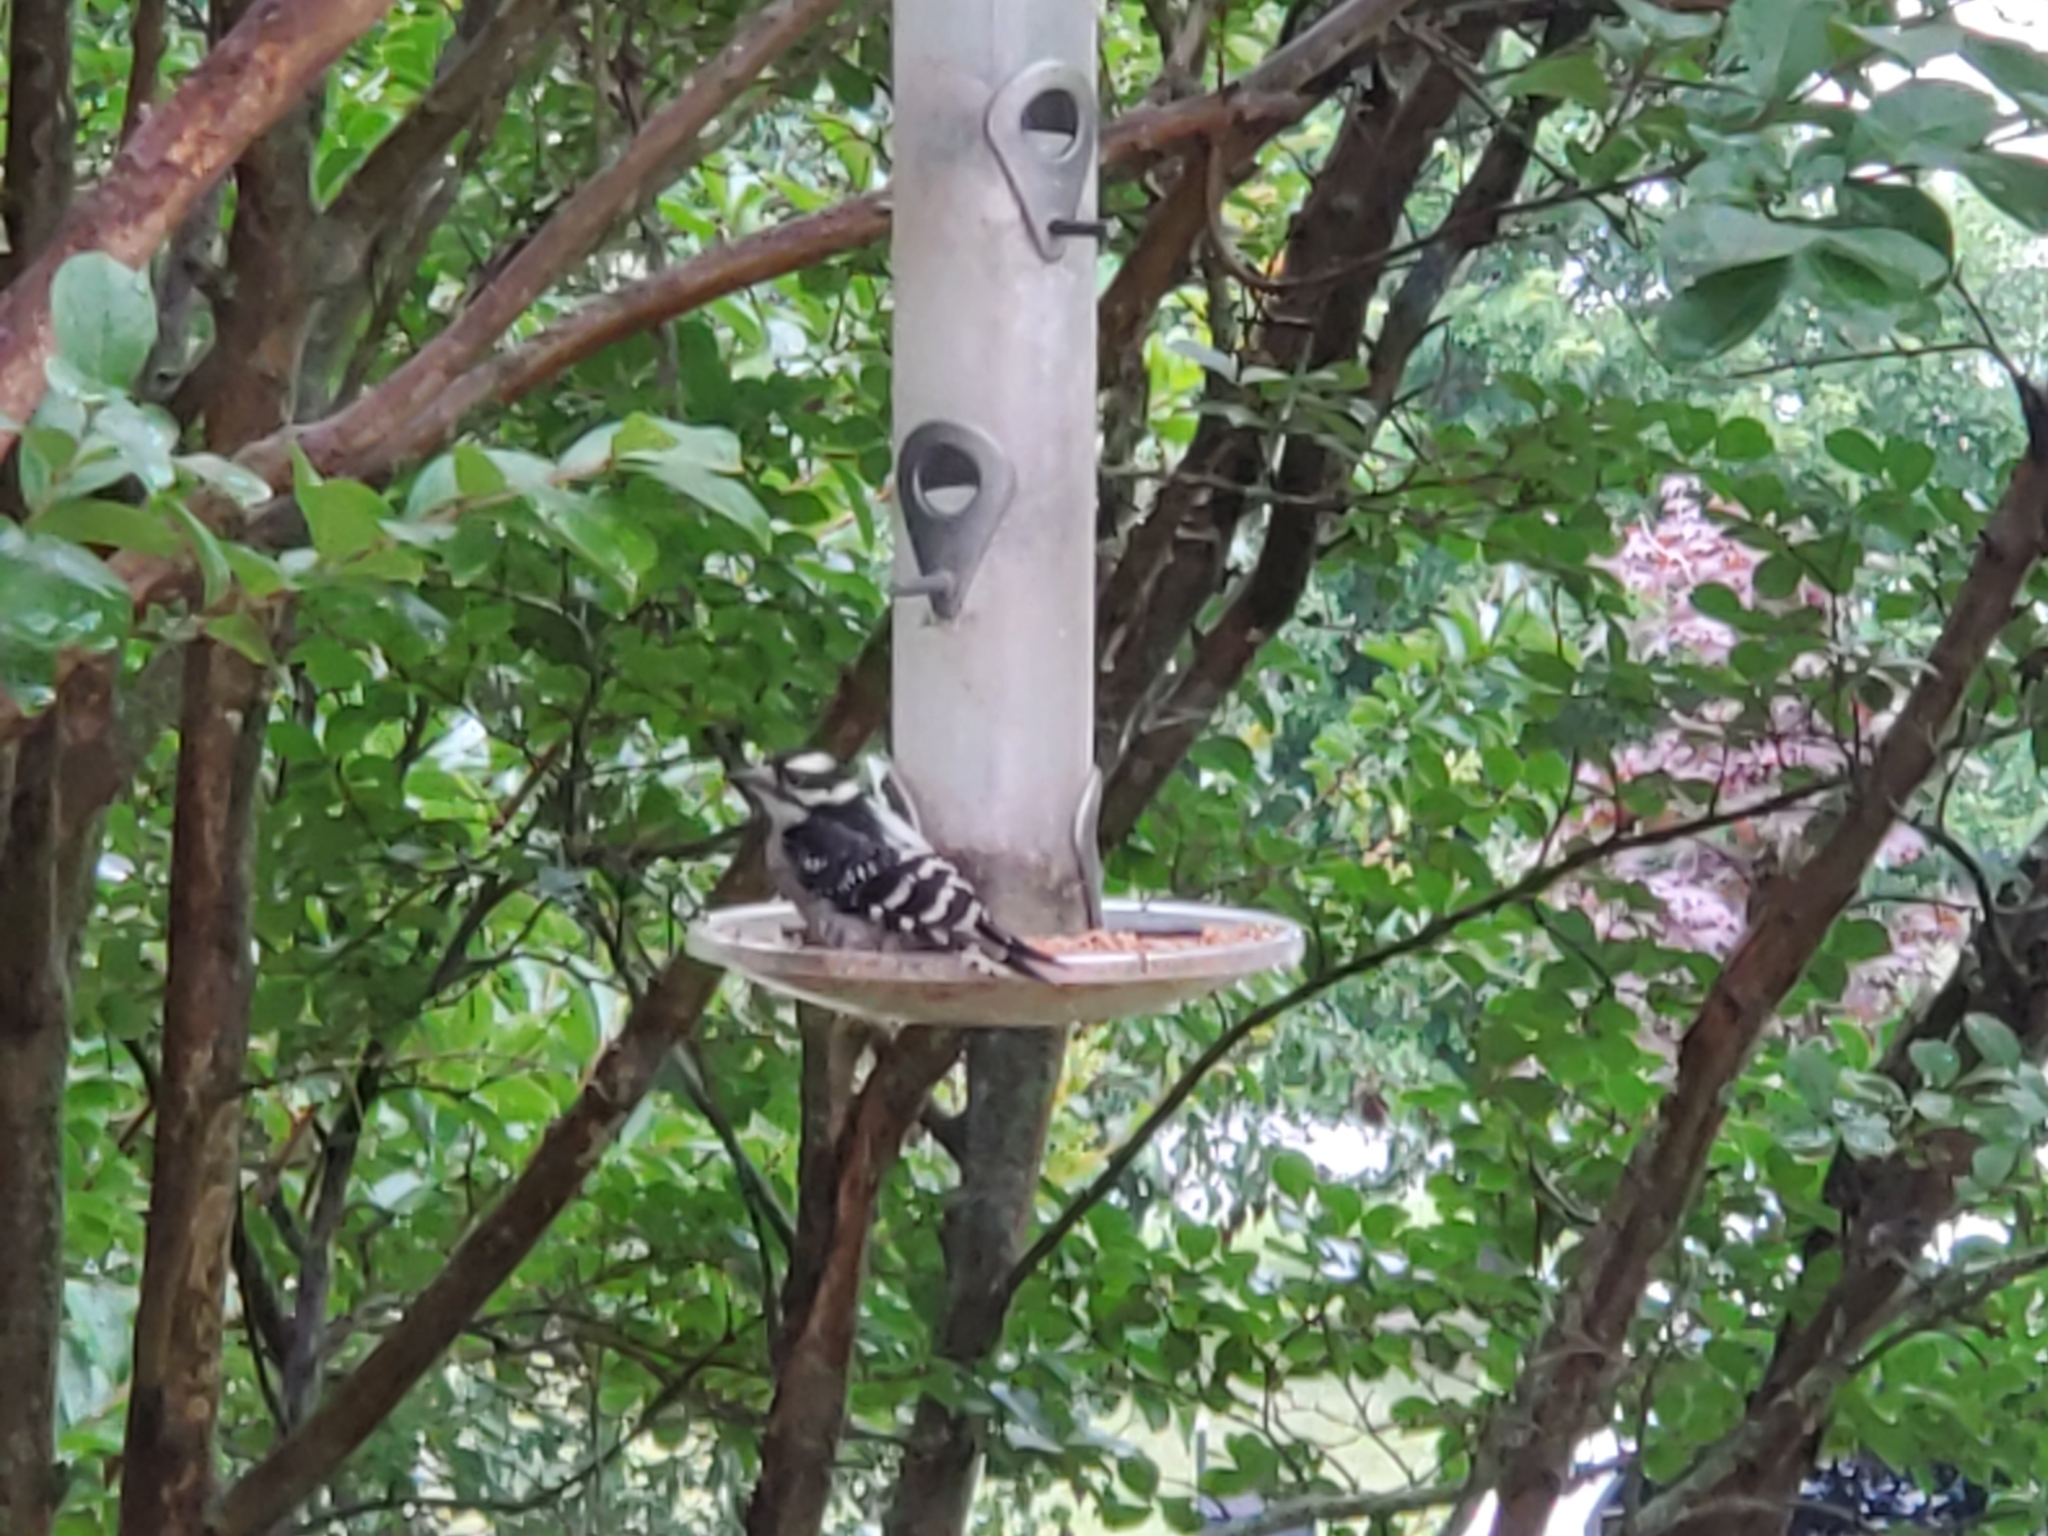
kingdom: Animalia
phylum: Chordata
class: Aves
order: Piciformes
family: Picidae
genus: Dryobates
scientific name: Dryobates pubescens
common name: Downy woodpecker
